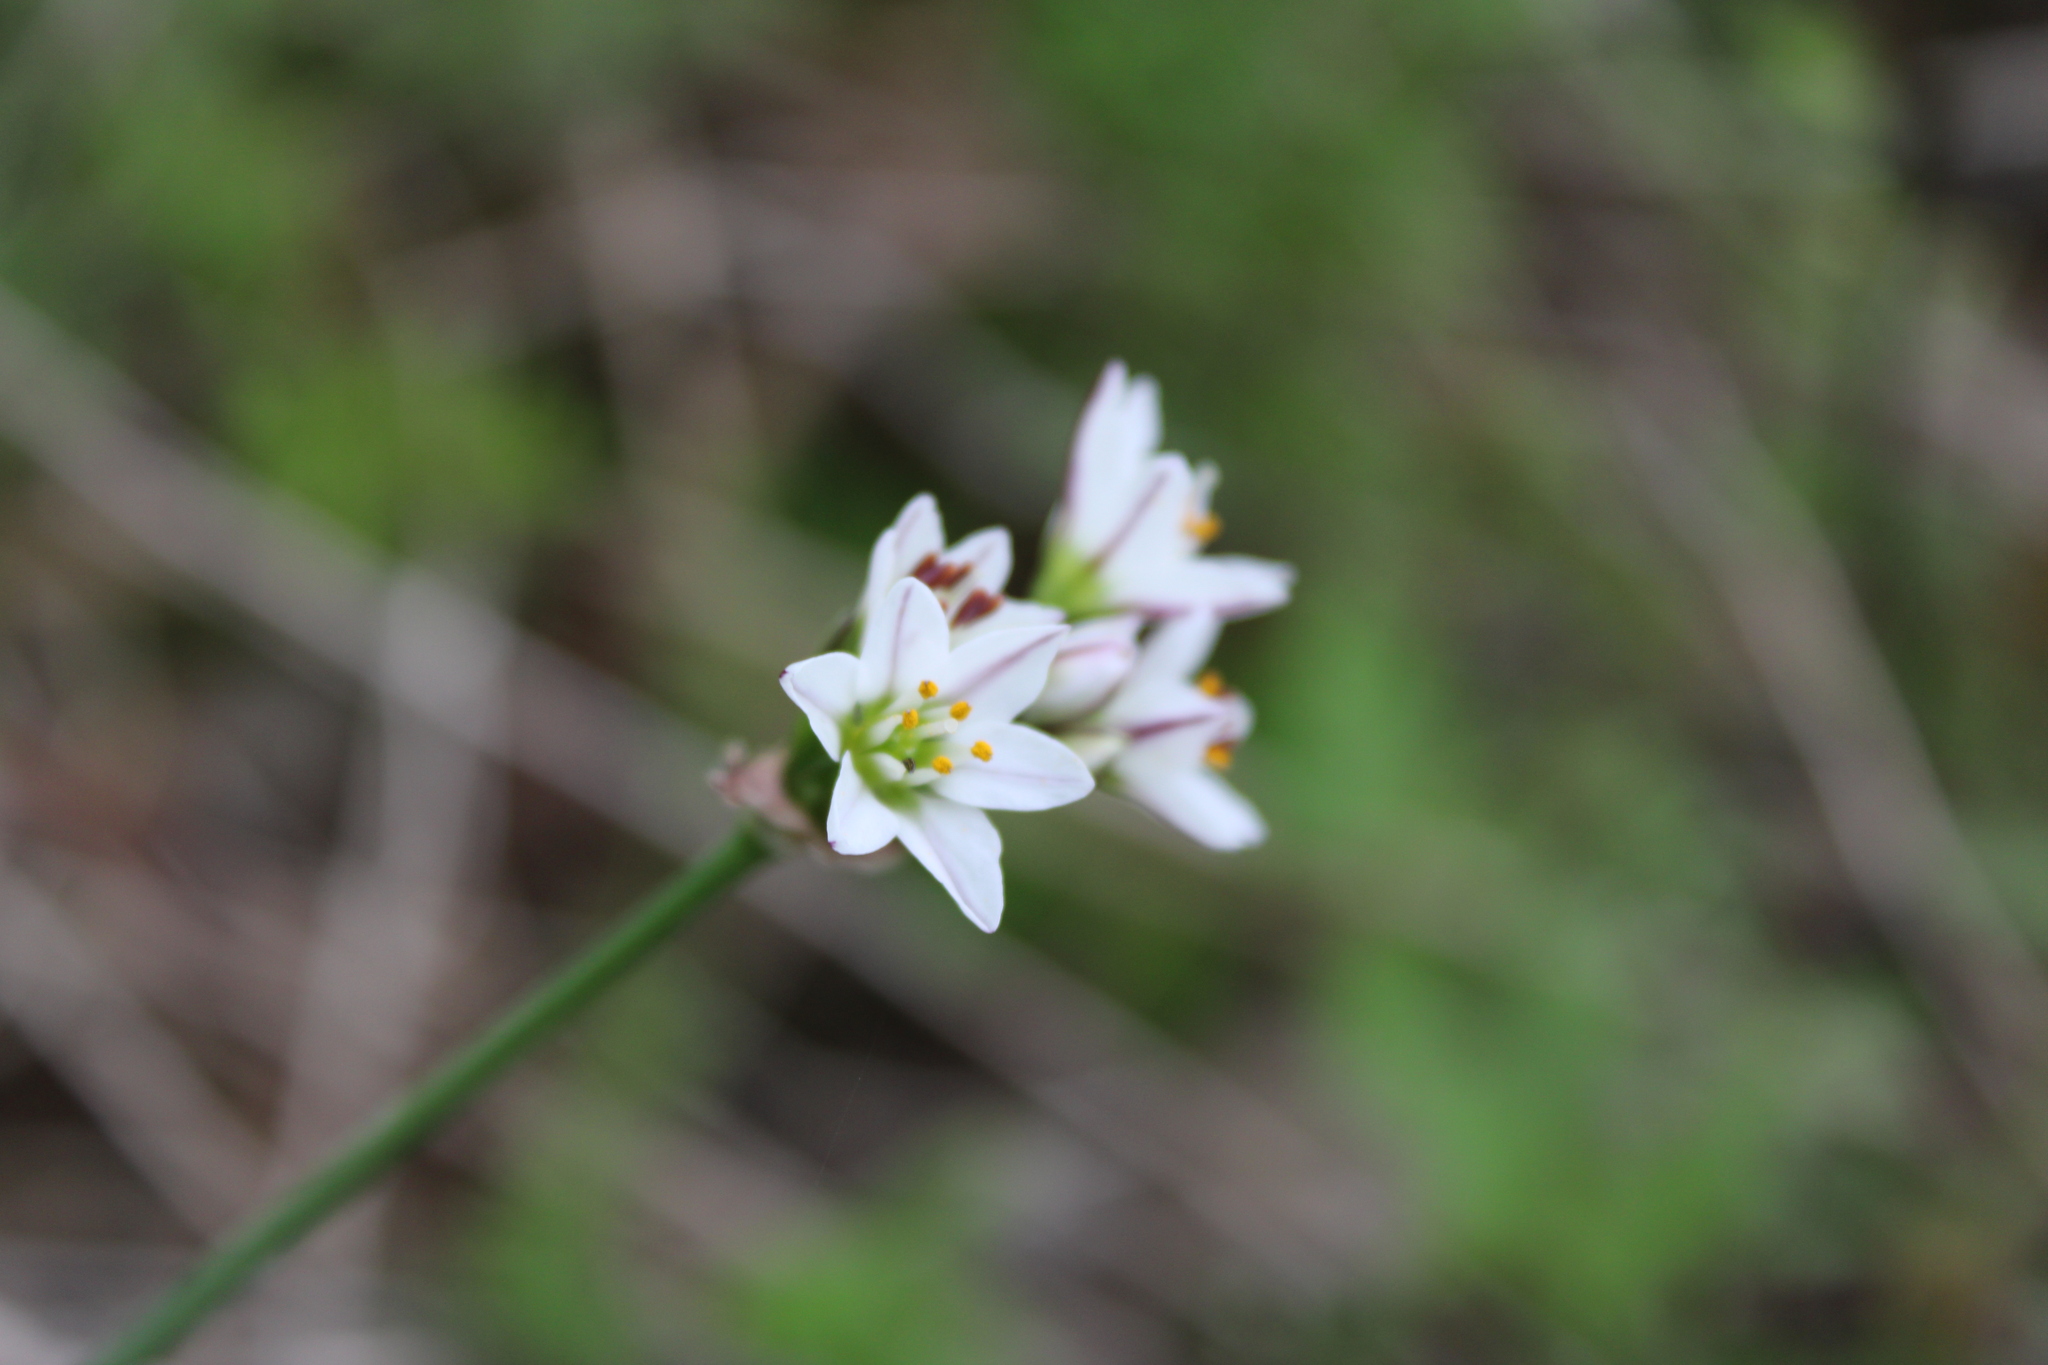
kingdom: Plantae
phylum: Tracheophyta
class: Liliopsida
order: Asparagales
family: Amaryllidaceae
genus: Nothoscordum
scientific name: Nothoscordum gracile
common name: Slender false garlic
